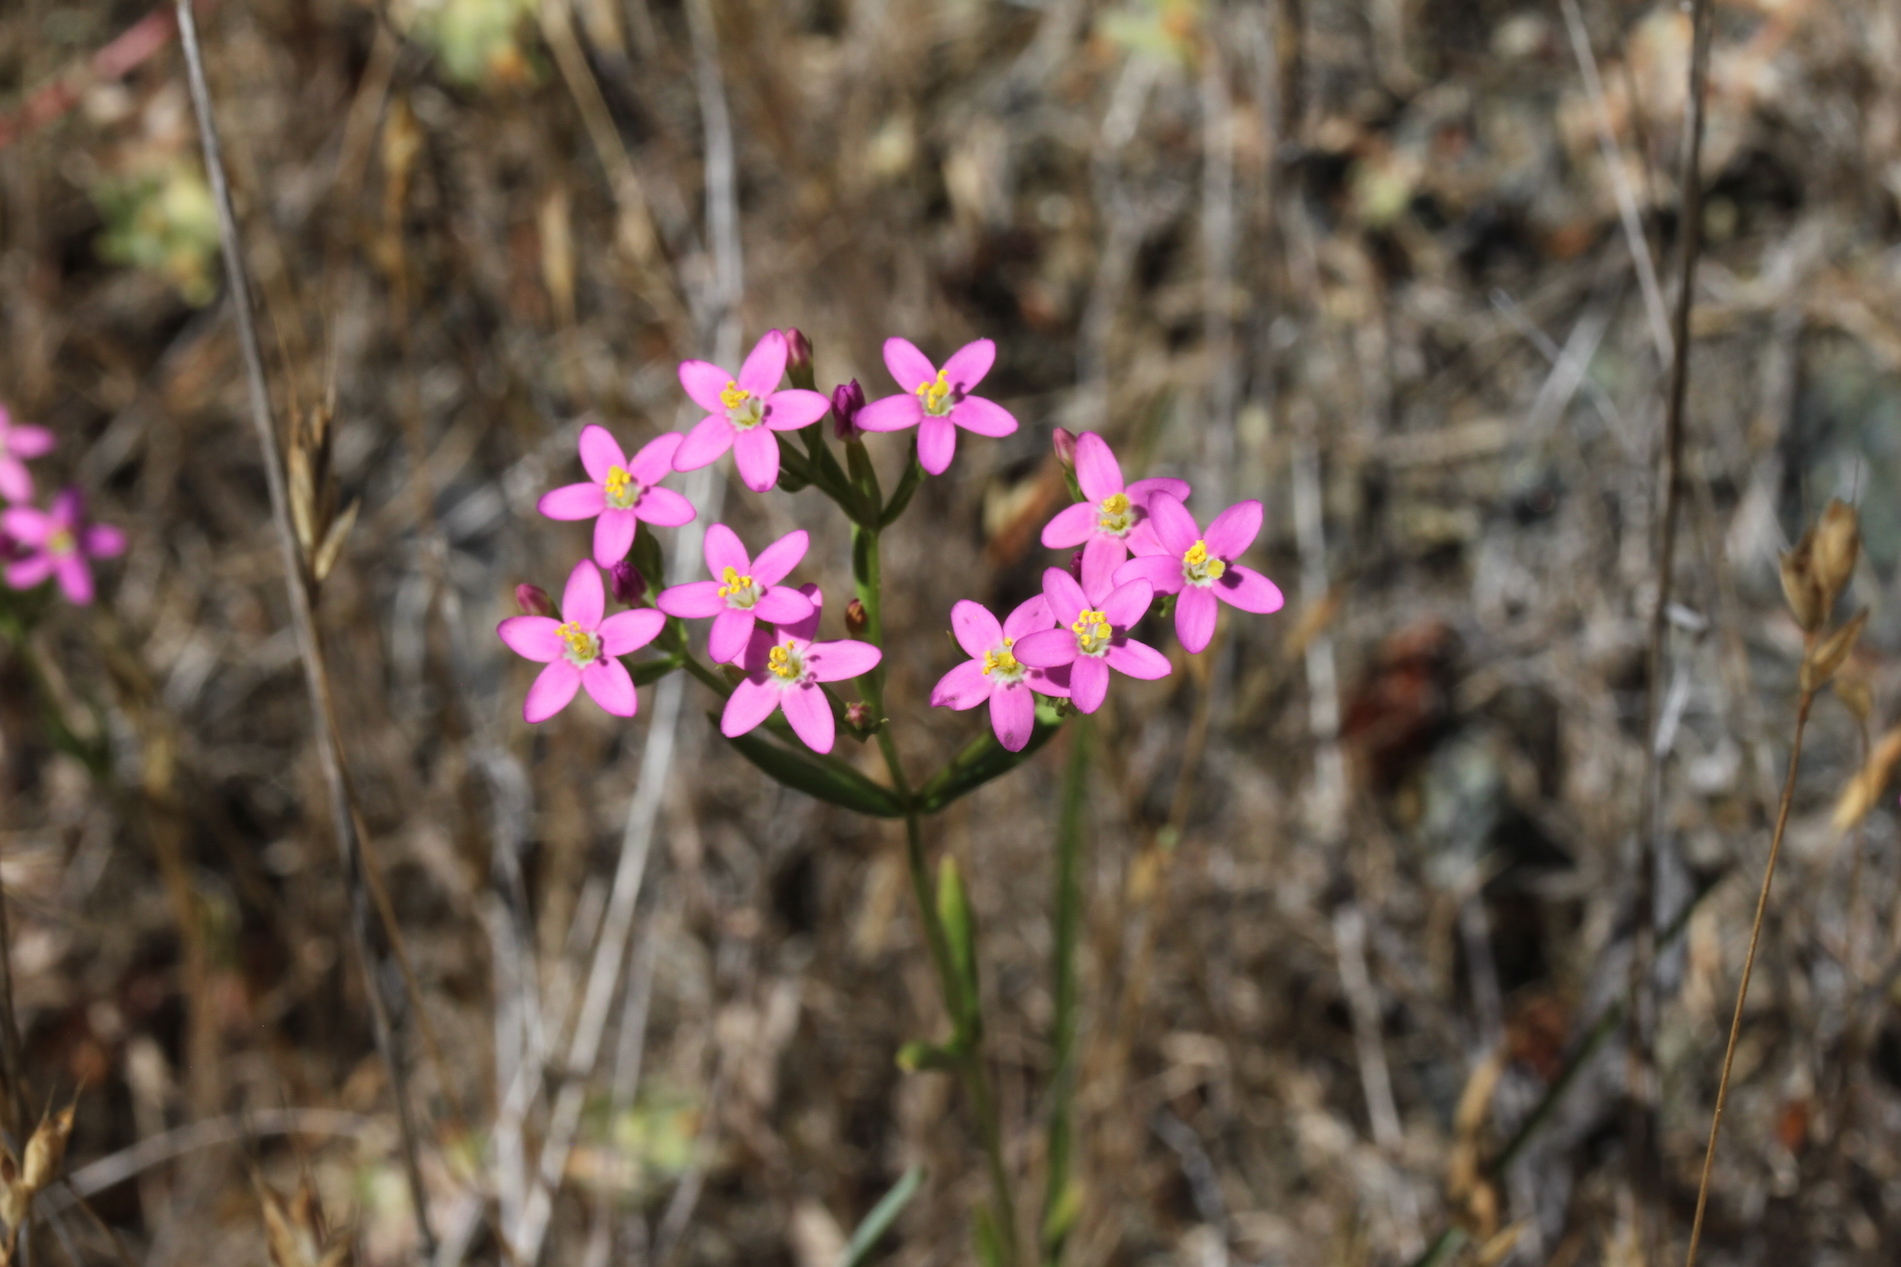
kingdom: Plantae
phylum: Tracheophyta
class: Magnoliopsida
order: Gentianales
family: Gentianaceae
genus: Zeltnera
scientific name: Zeltnera trichantha
